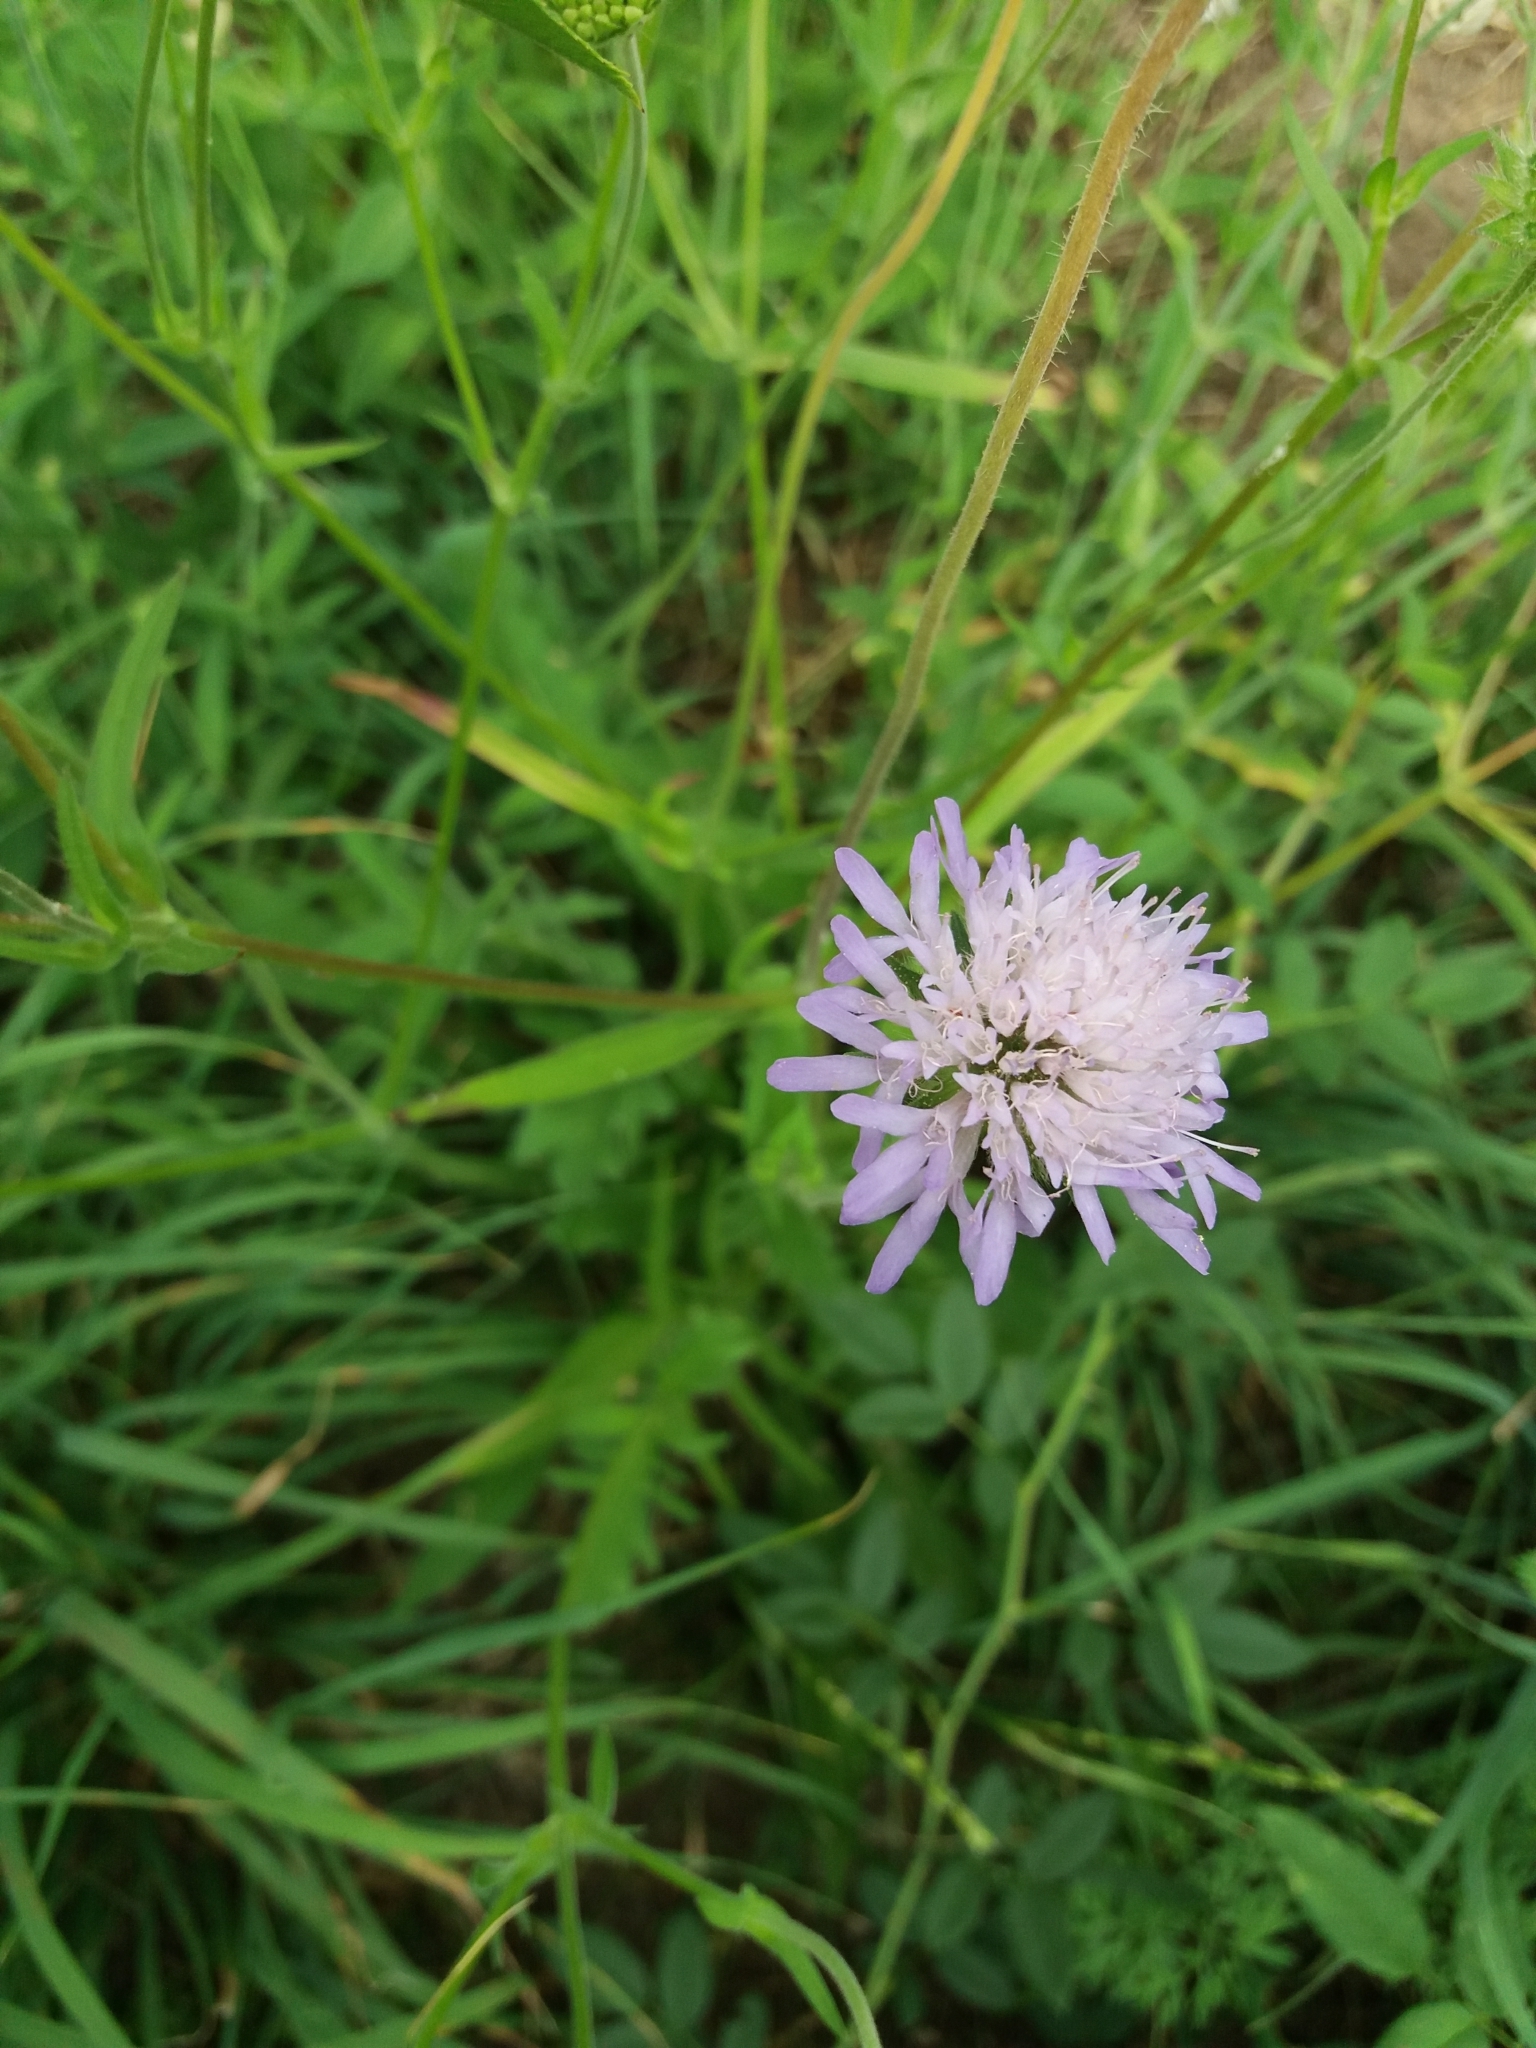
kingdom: Plantae
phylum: Tracheophyta
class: Magnoliopsida
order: Dipsacales
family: Caprifoliaceae
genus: Knautia
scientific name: Knautia arvensis
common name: Field scabiosa
